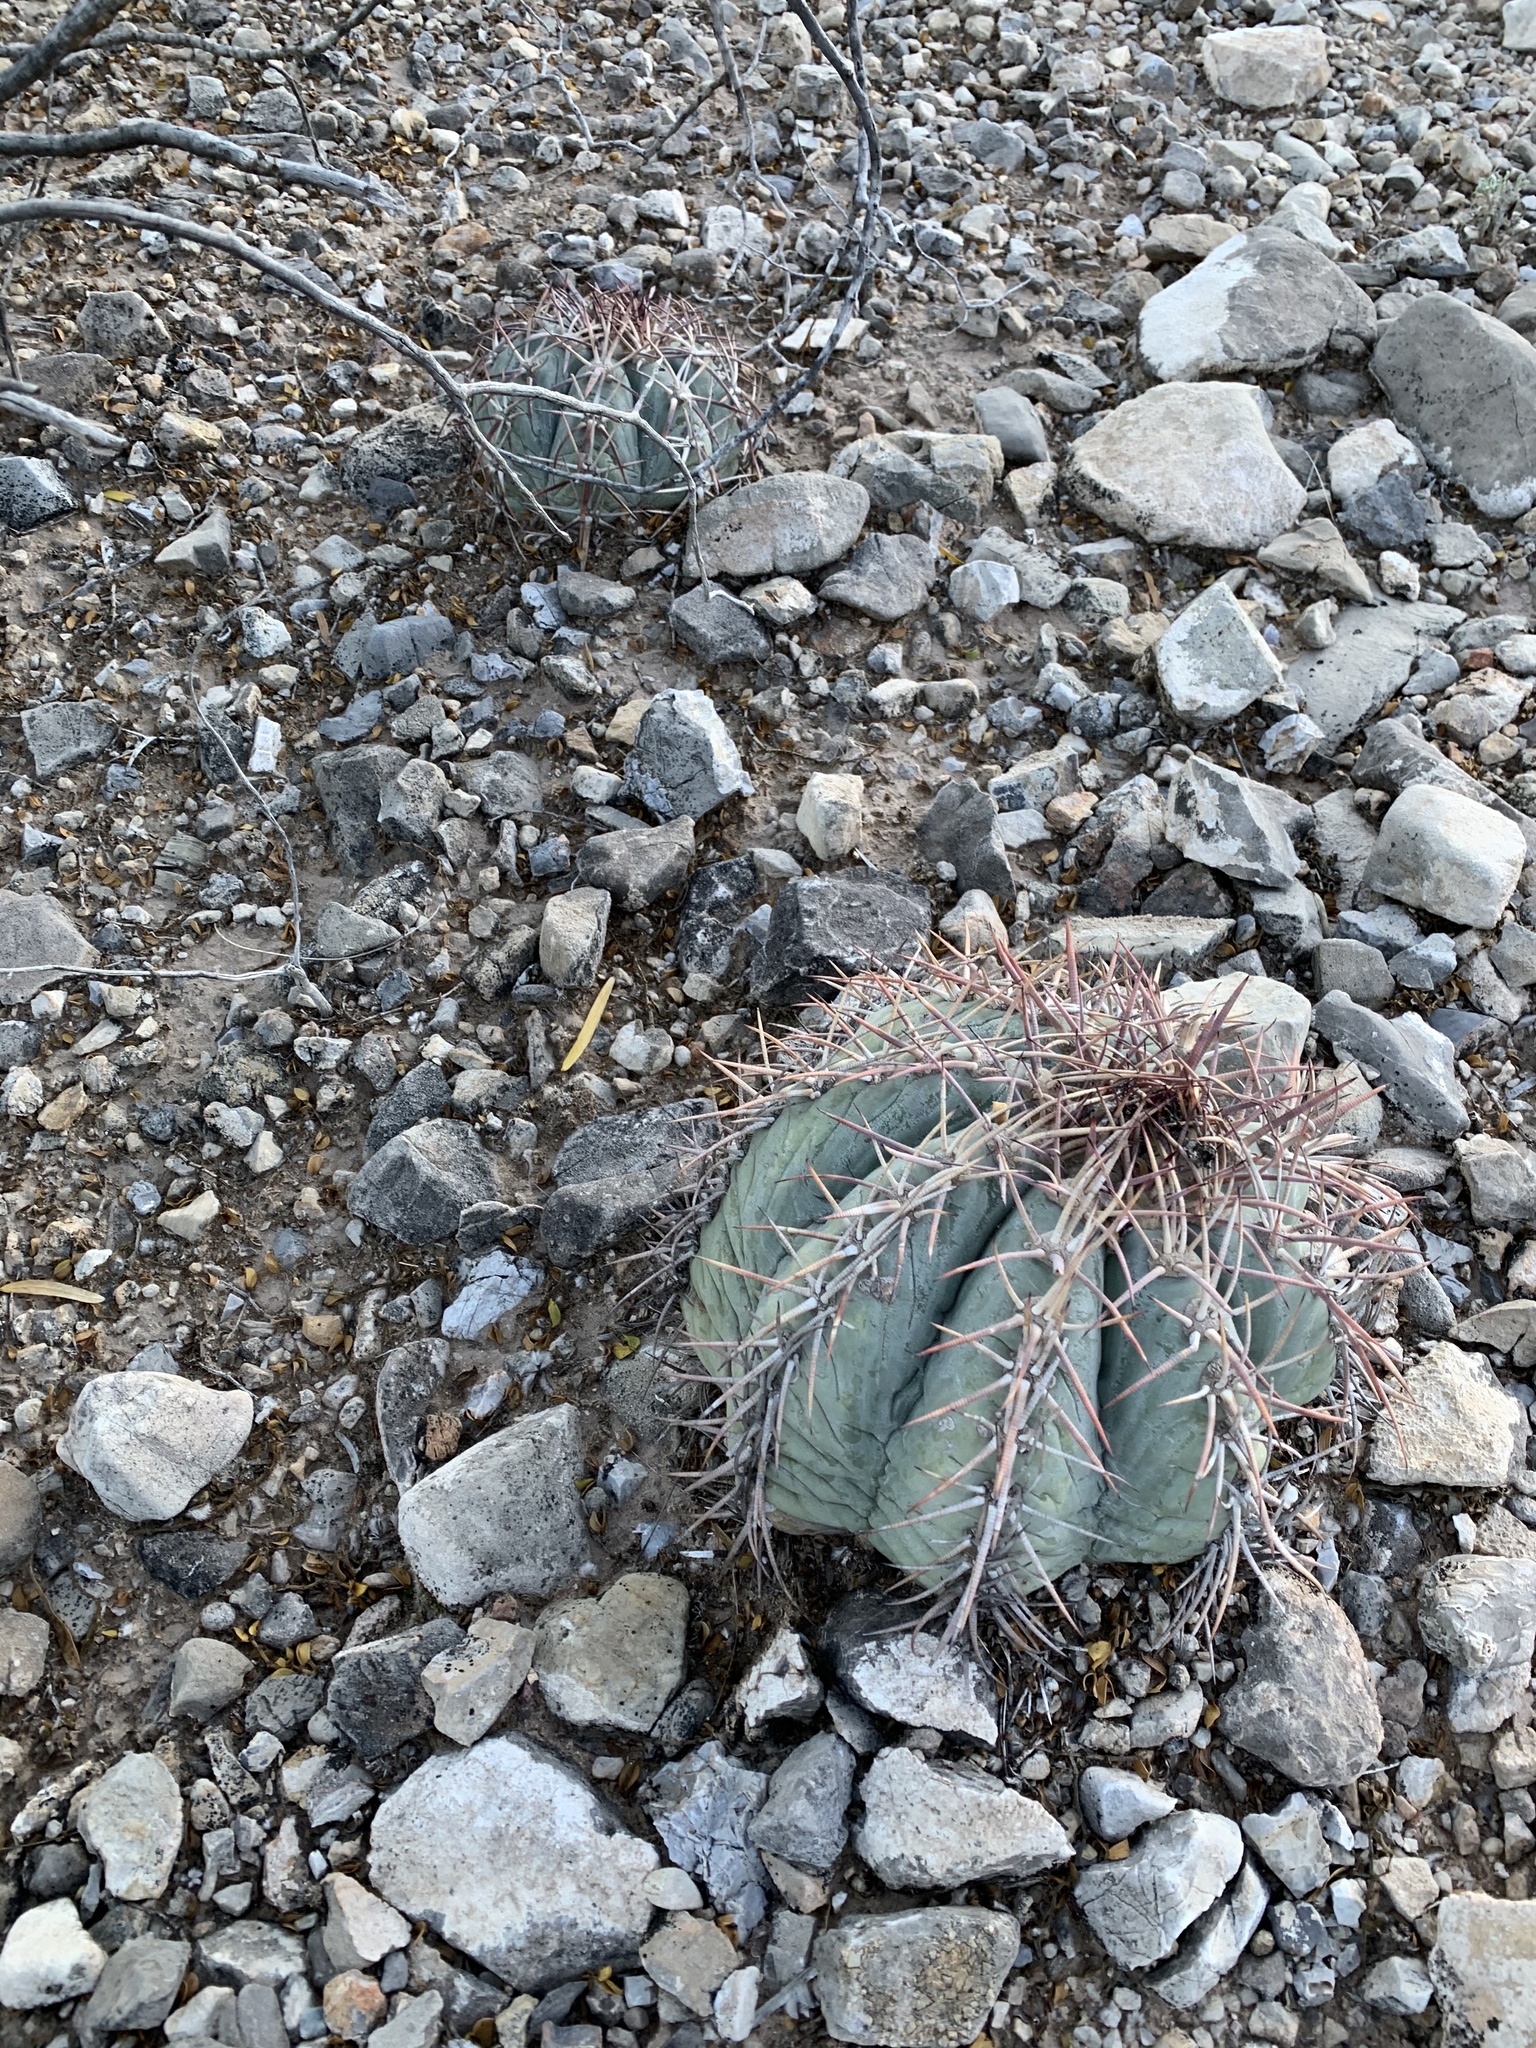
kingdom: Plantae
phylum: Tracheophyta
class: Magnoliopsida
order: Caryophyllales
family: Cactaceae
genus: Echinocactus
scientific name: Echinocactus horizonthalonius
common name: Devilshead
